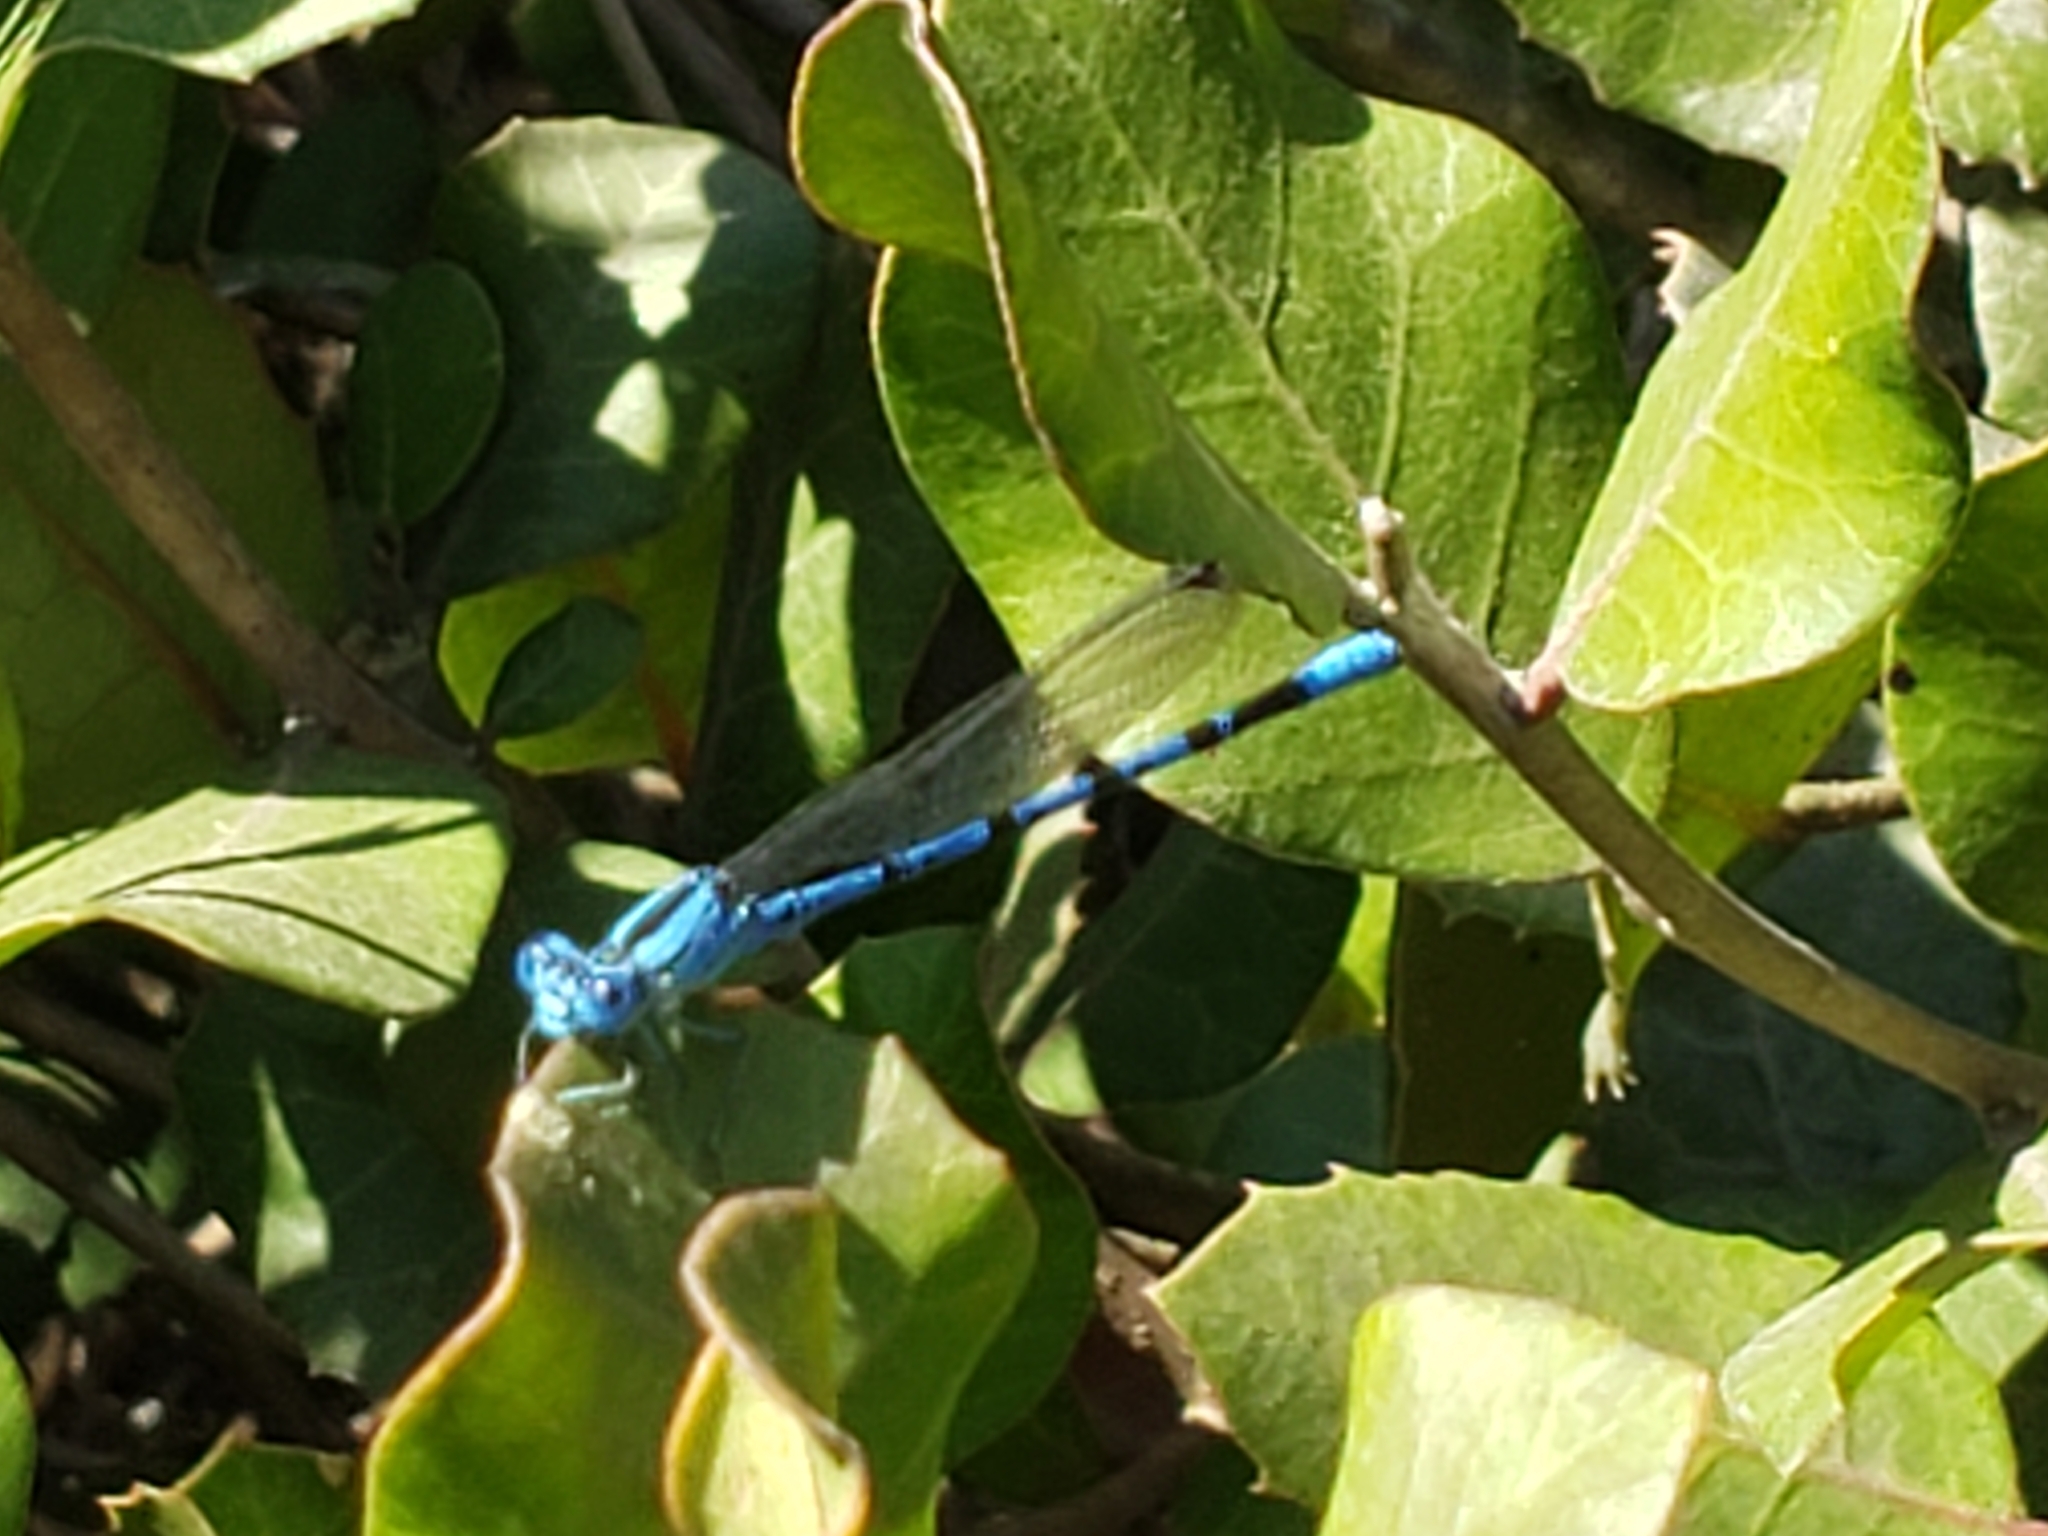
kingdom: Animalia
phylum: Arthropoda
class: Insecta
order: Odonata
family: Coenagrionidae
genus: Argia
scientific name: Argia vivida
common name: Vivid dancer
